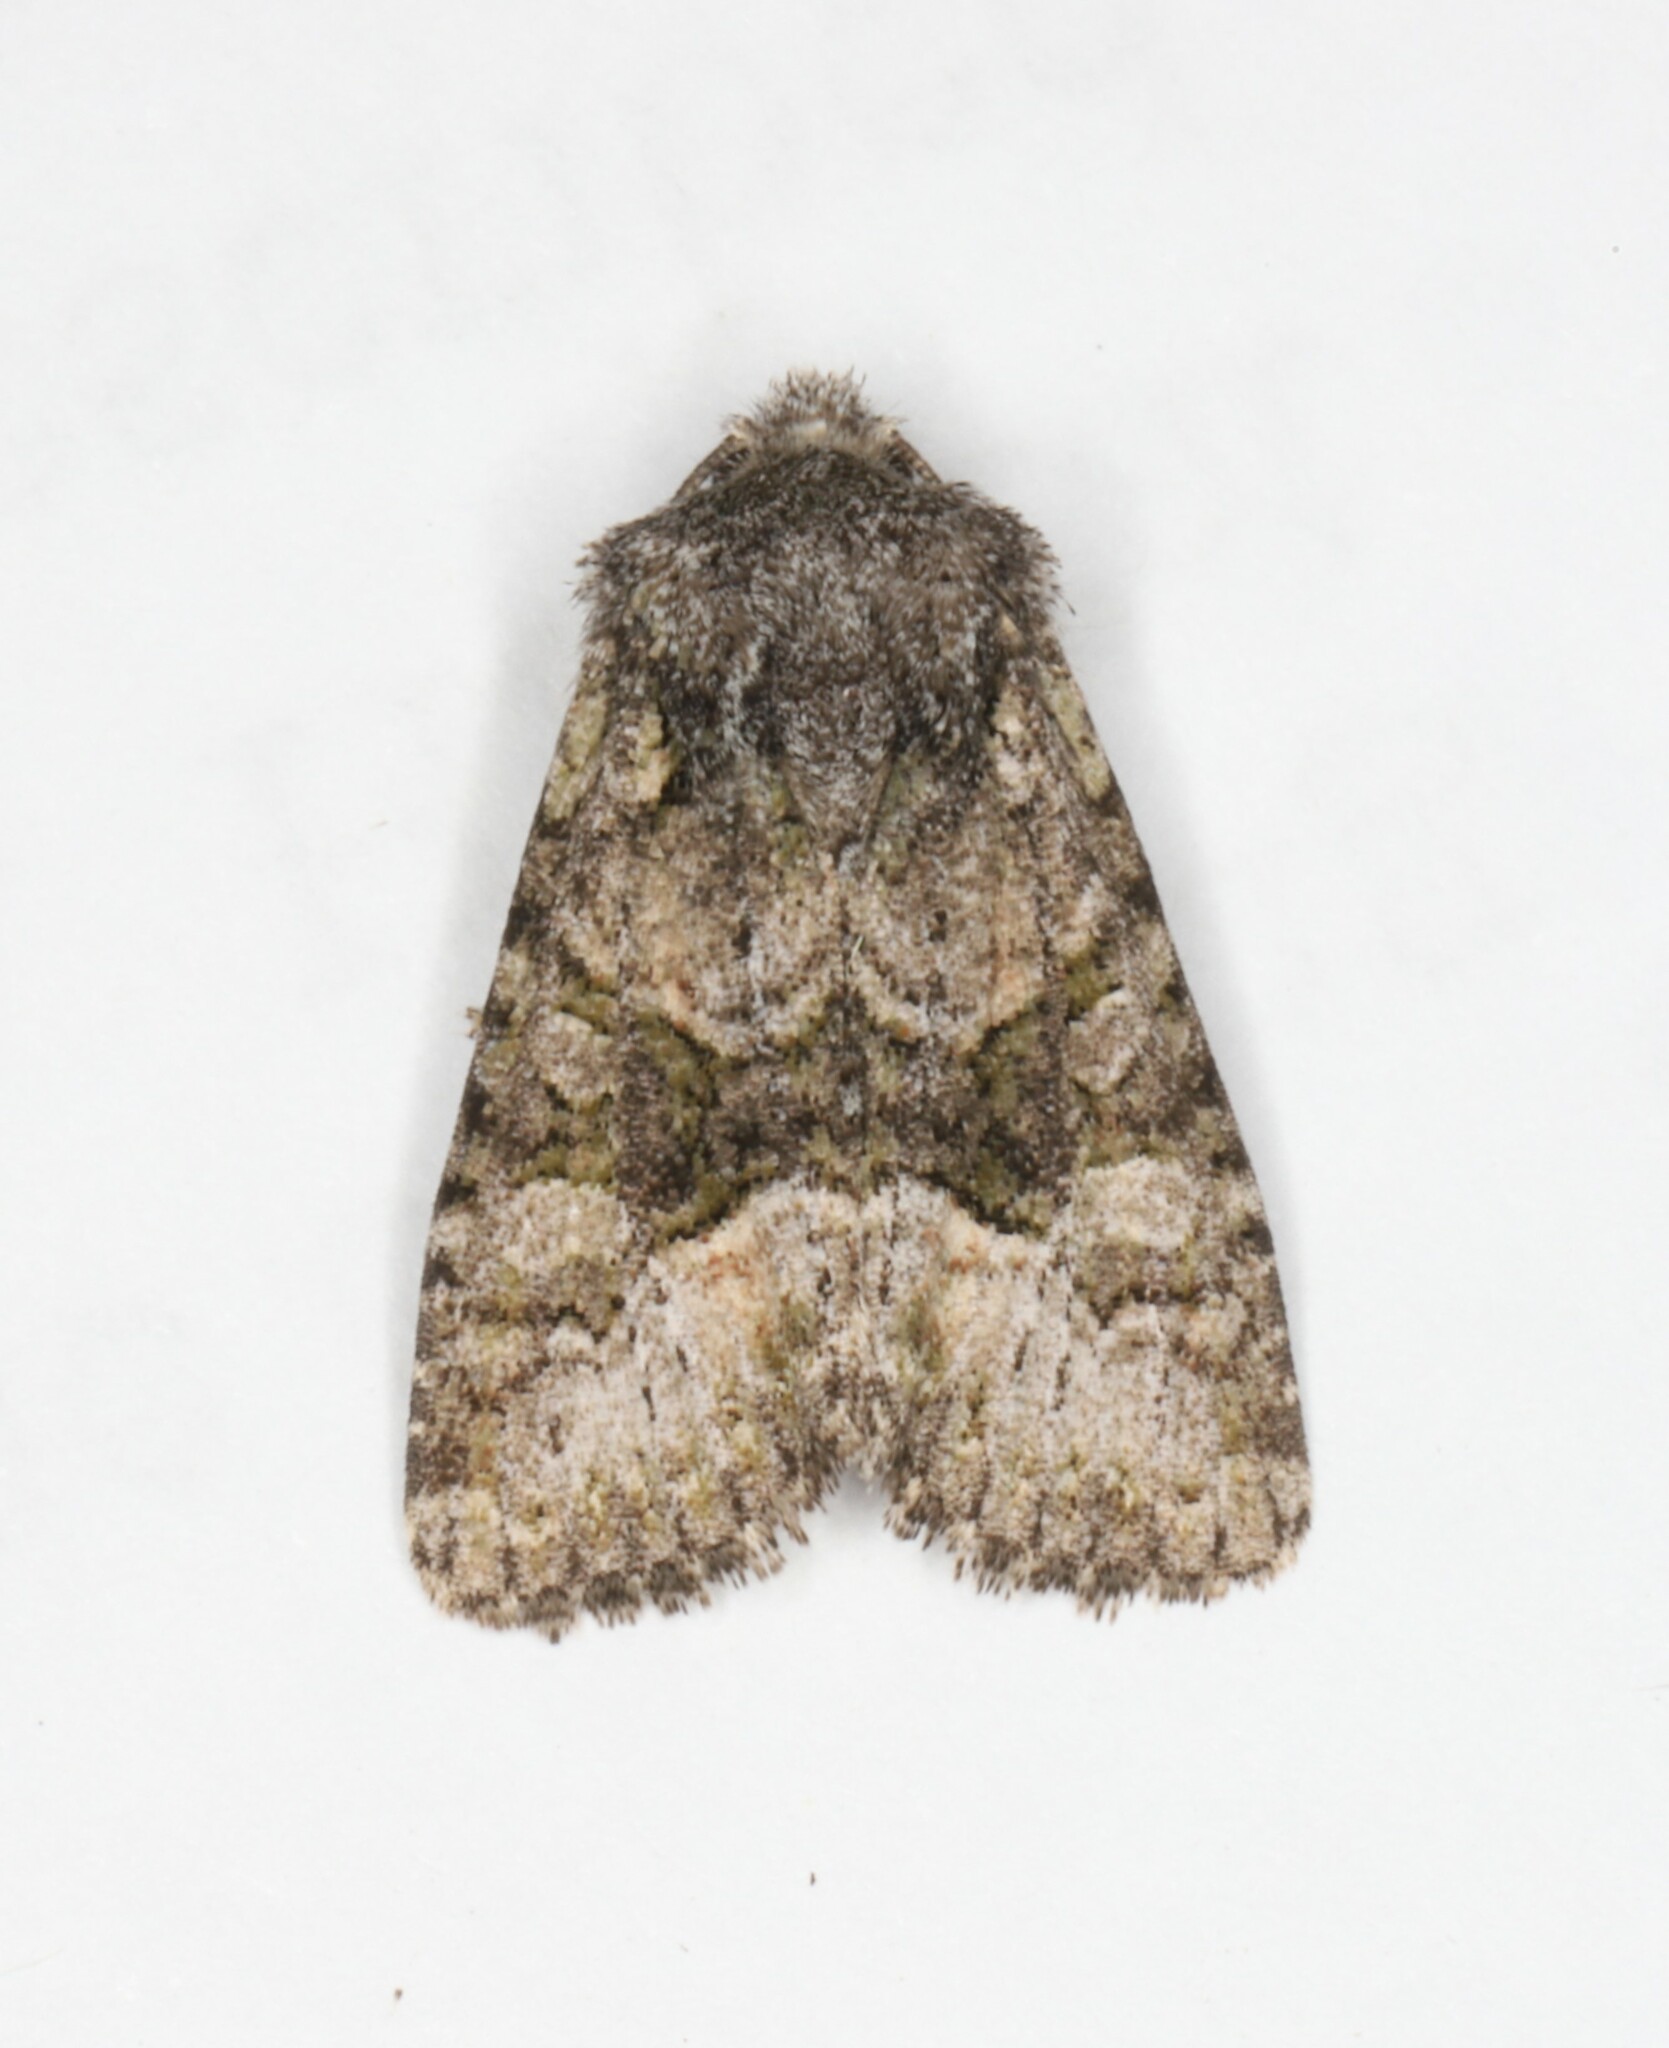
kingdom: Animalia
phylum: Arthropoda
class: Insecta
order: Lepidoptera
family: Noctuidae
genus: Lacinipolia
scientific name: Lacinipolia olivacea
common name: Olive arches moth
